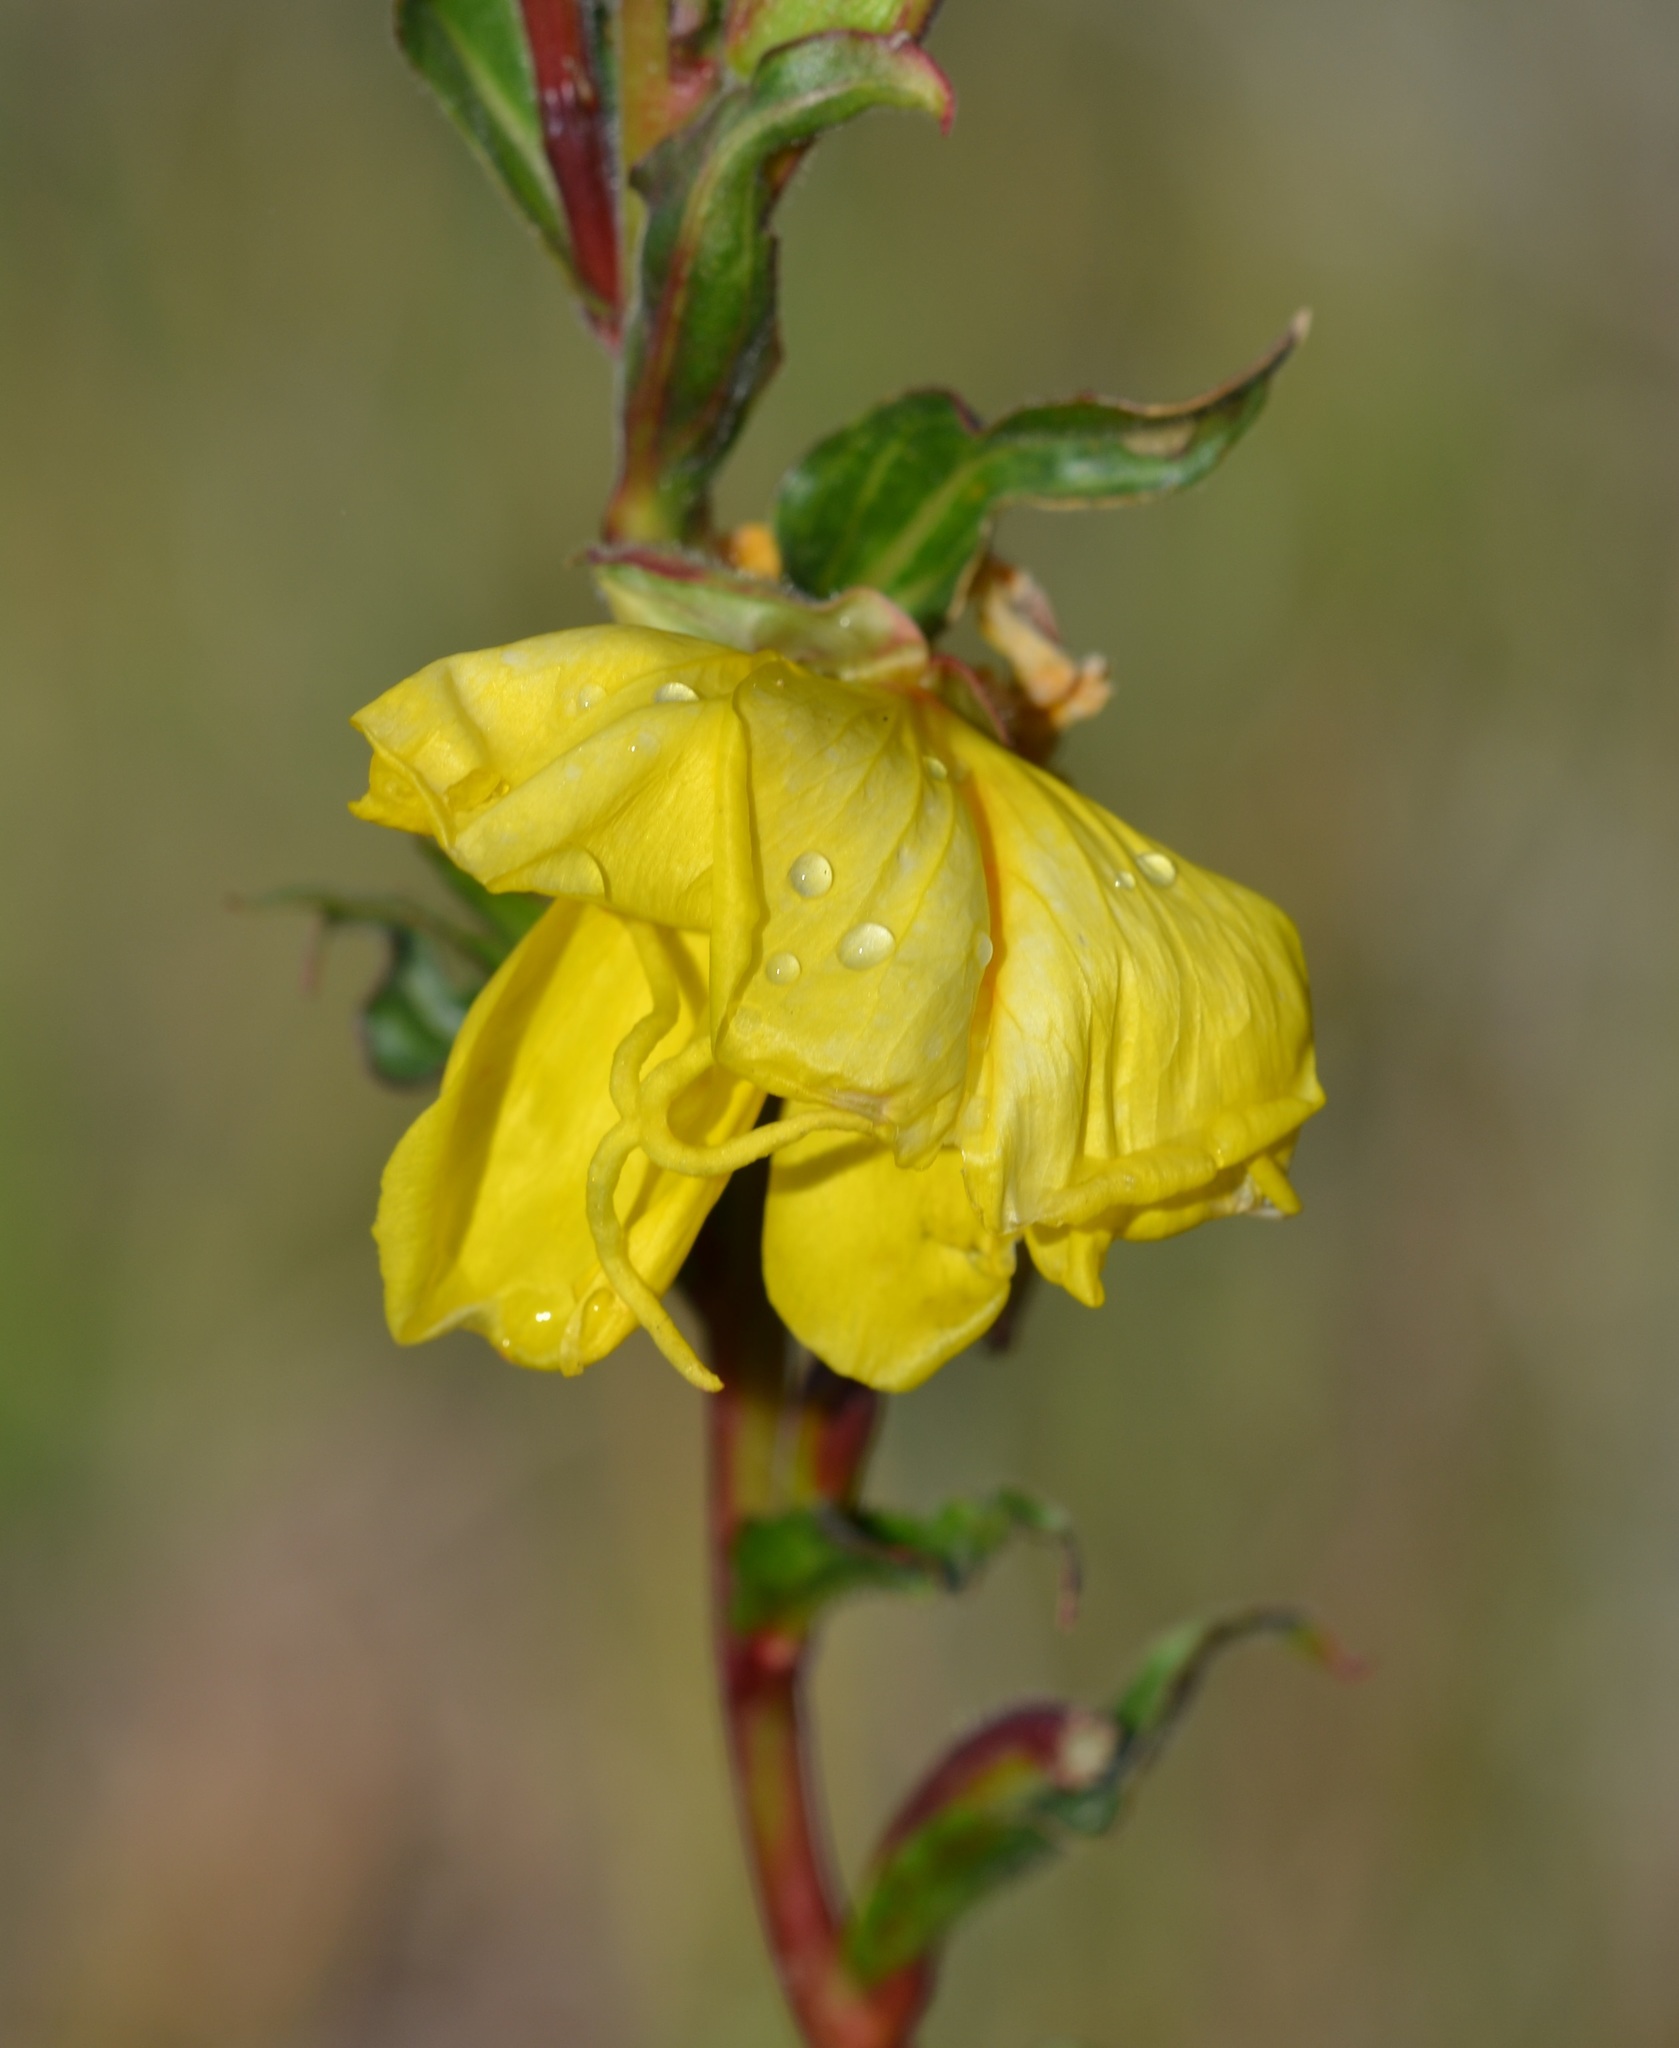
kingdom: Plantae
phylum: Tracheophyta
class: Magnoliopsida
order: Myrtales
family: Onagraceae
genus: Oenothera
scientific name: Oenothera stricta
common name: Fragrant evening-primrose
